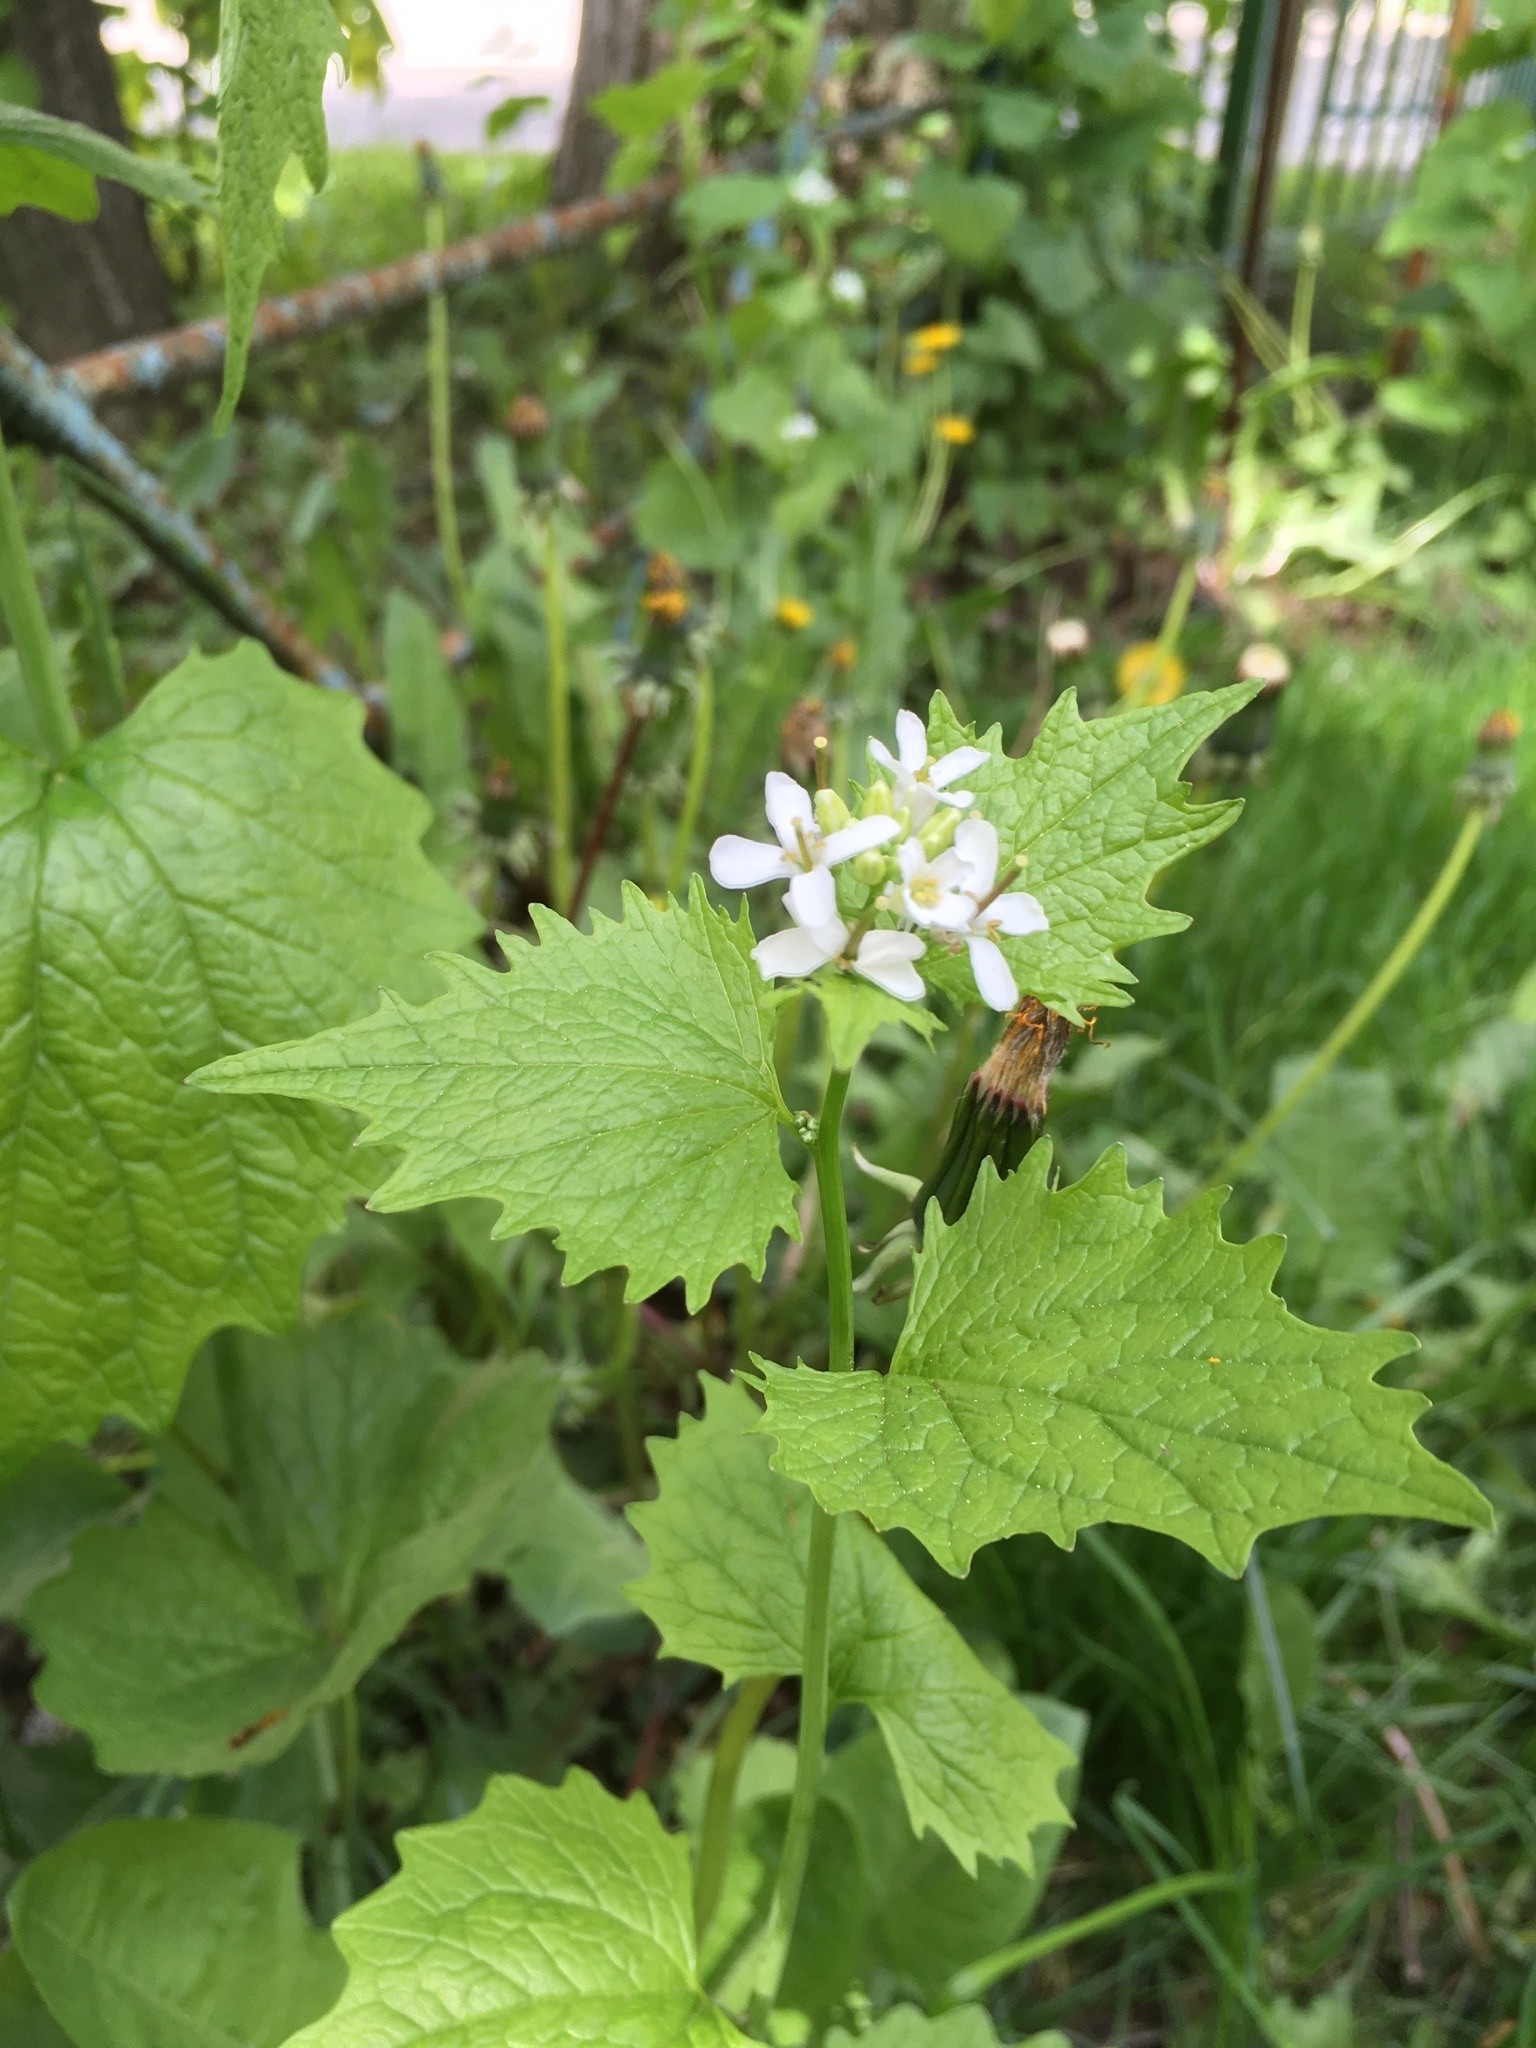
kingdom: Plantae
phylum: Tracheophyta
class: Magnoliopsida
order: Brassicales
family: Brassicaceae
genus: Alliaria
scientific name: Alliaria petiolata
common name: Garlic mustard
